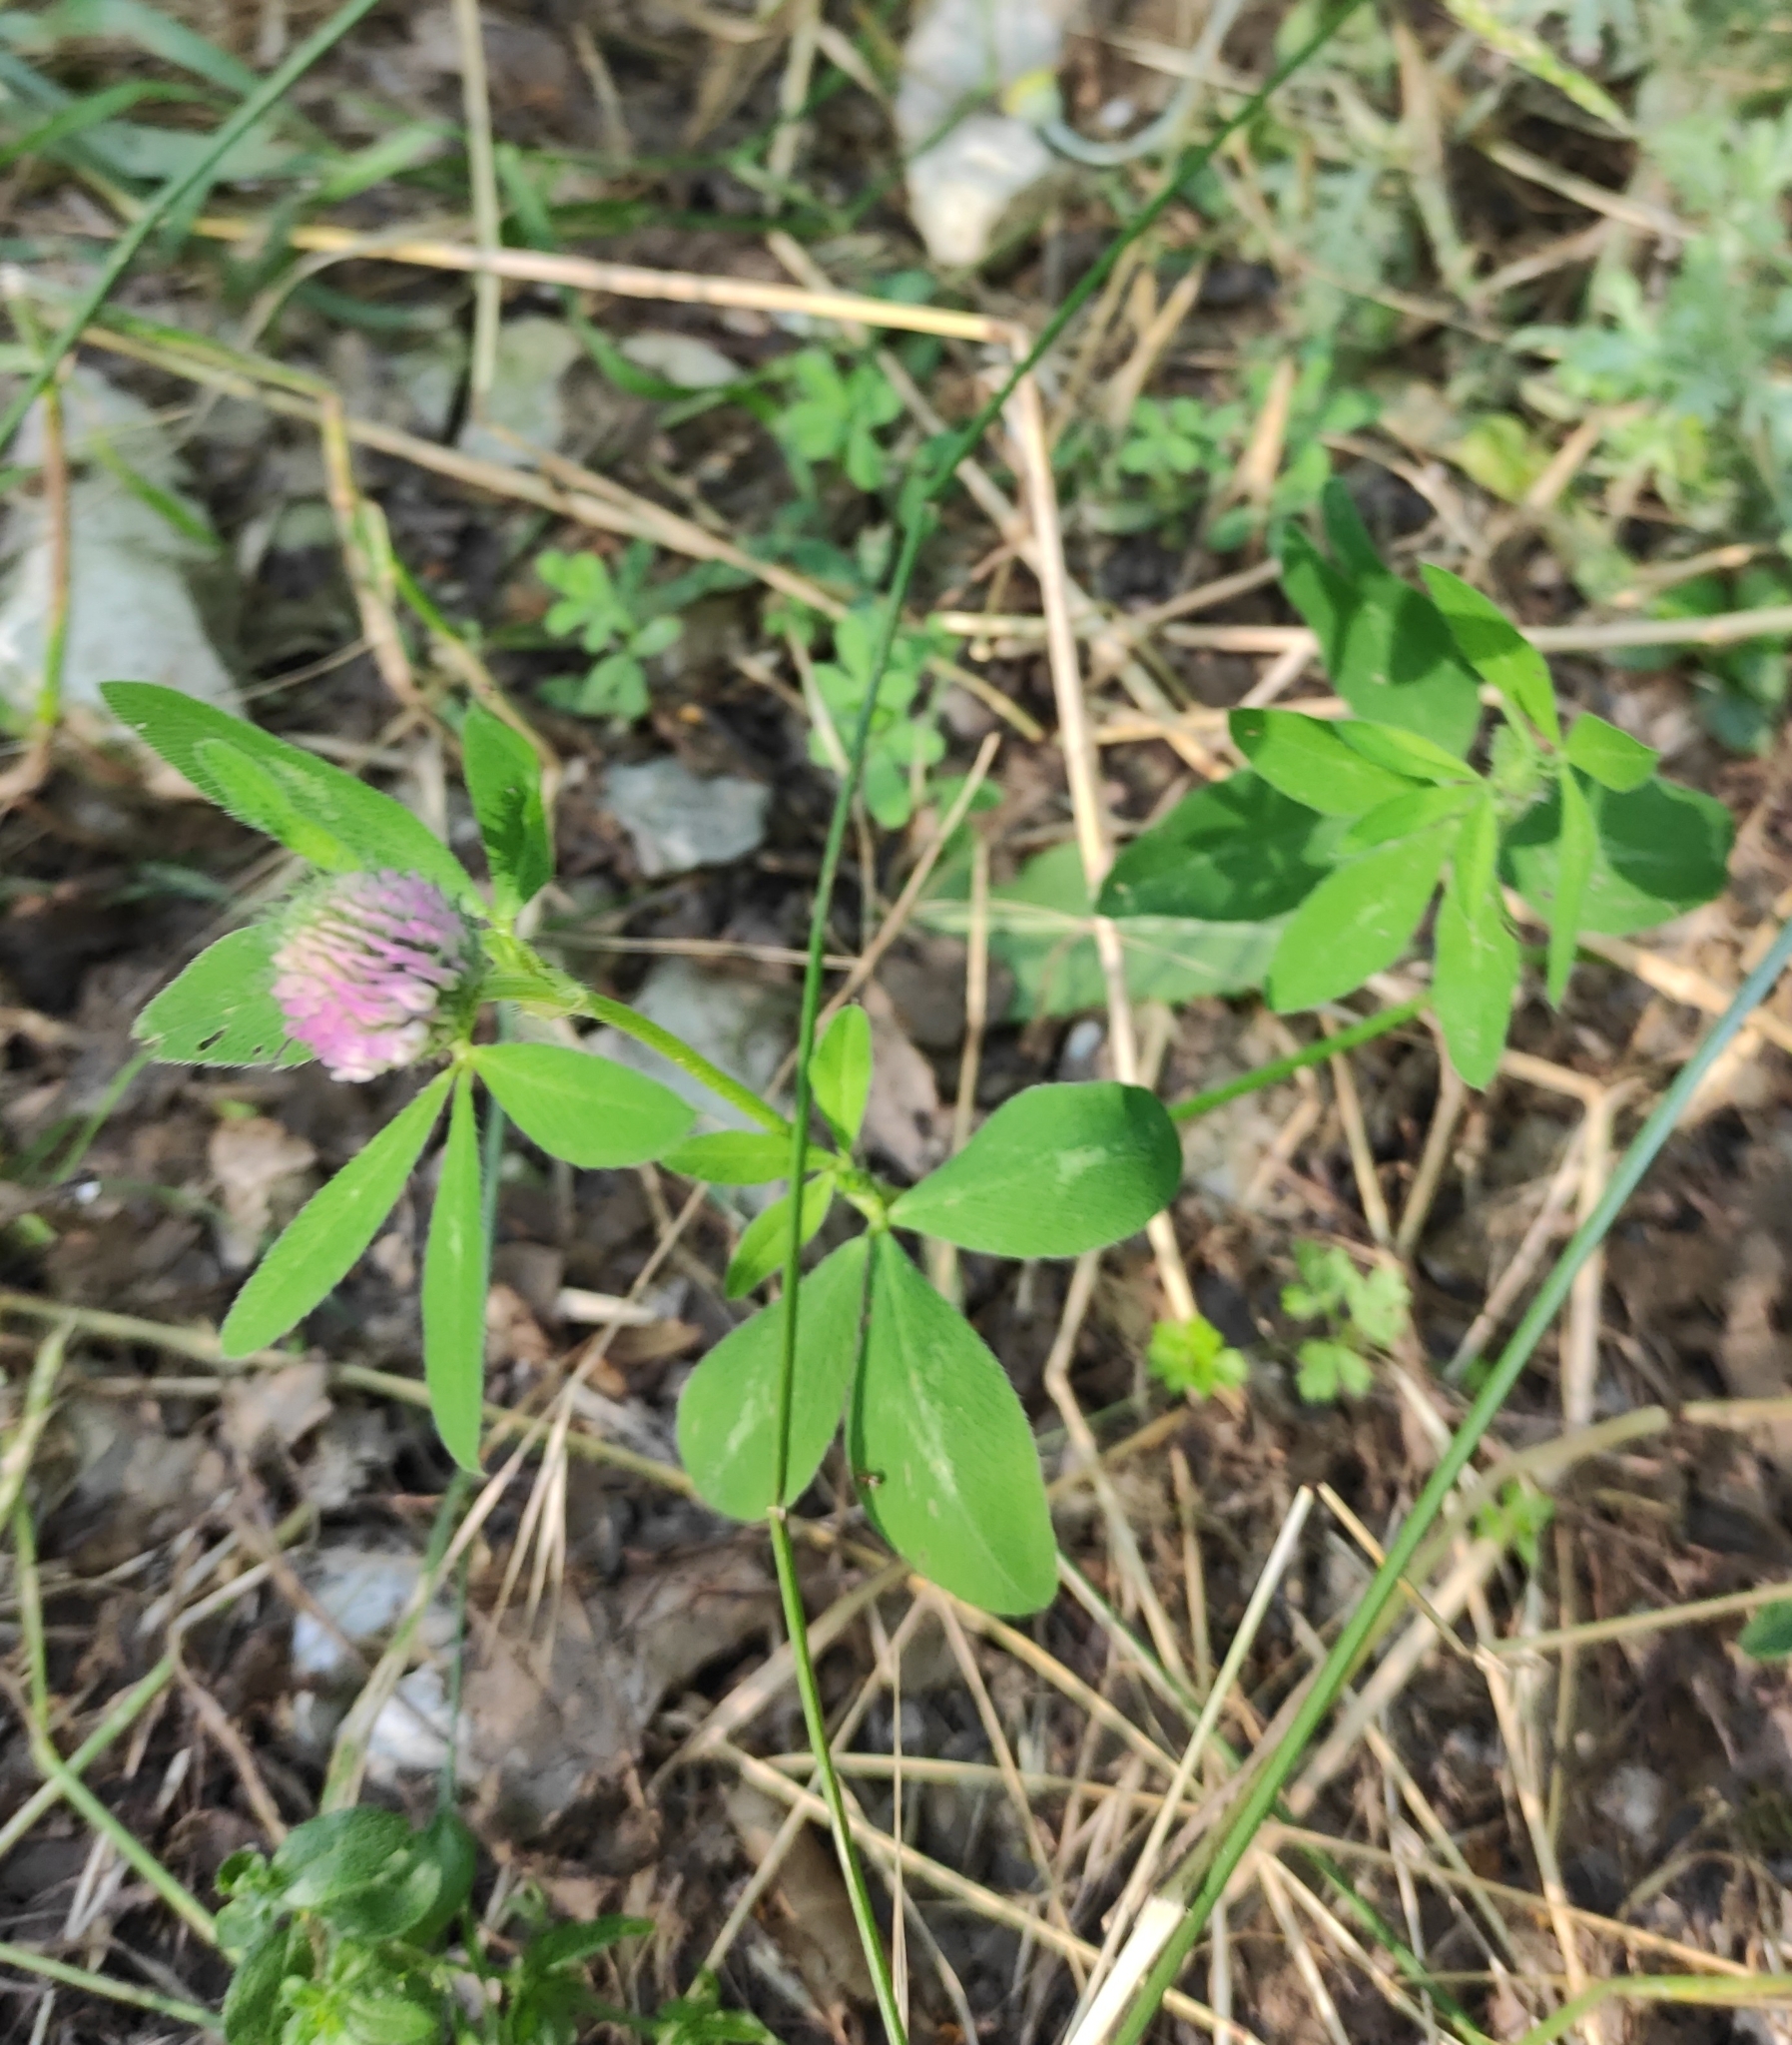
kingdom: Plantae
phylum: Tracheophyta
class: Magnoliopsida
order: Fabales
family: Fabaceae
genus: Trifolium
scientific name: Trifolium pratense
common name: Red clover
